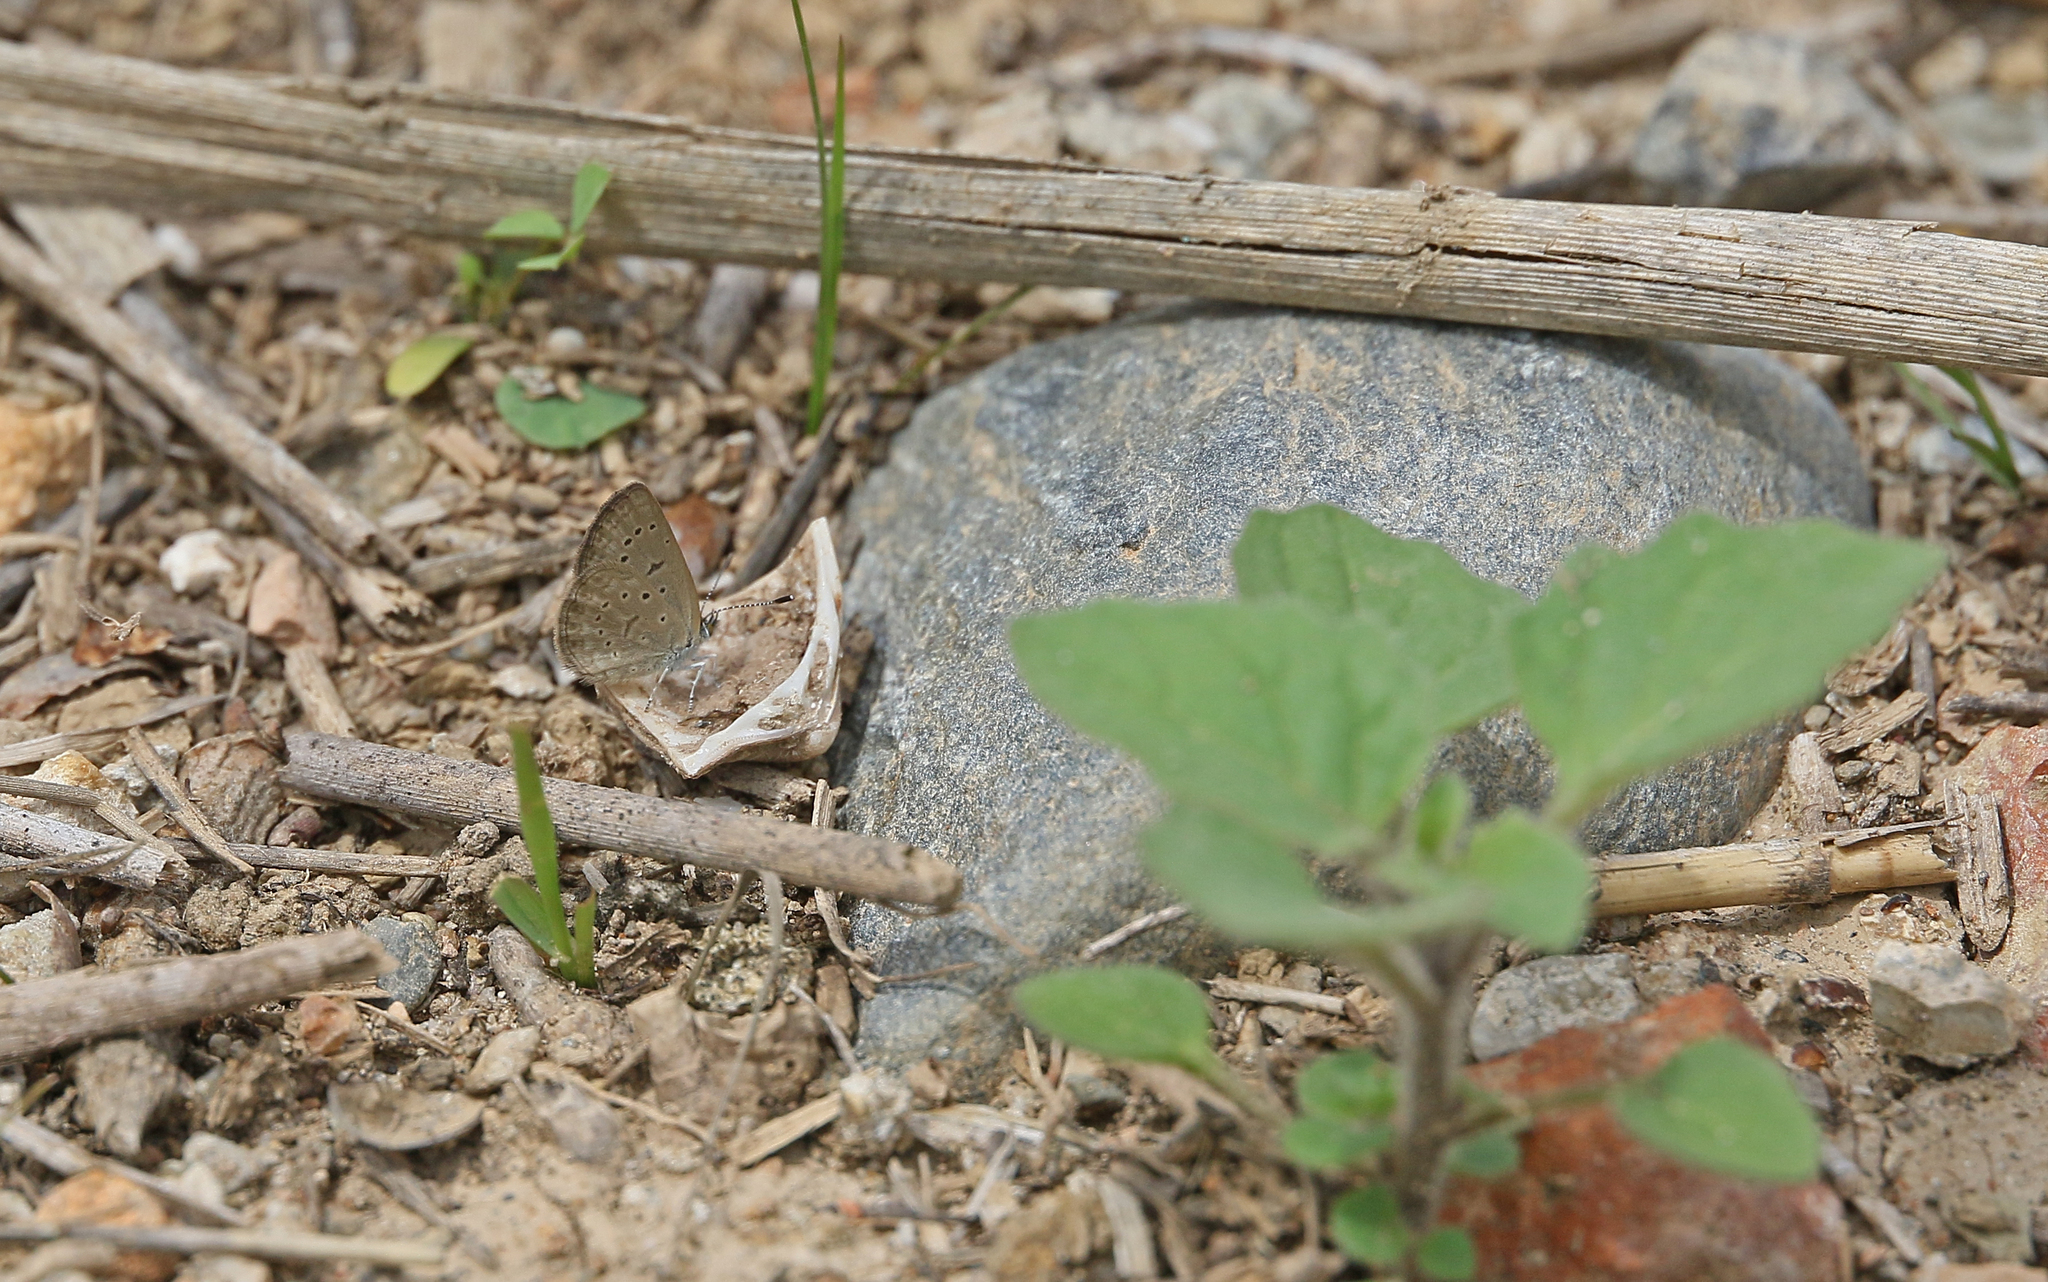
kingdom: Animalia
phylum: Arthropoda
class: Insecta
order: Lepidoptera
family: Lycaenidae
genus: Zizeeria
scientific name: Zizeeria knysna
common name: African grass blue
